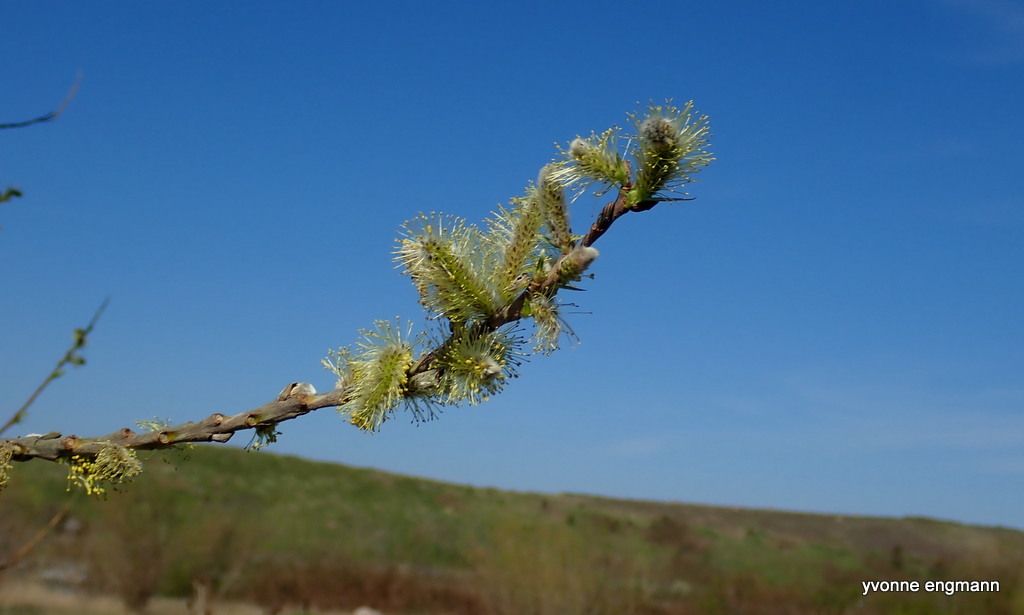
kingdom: Plantae
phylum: Tracheophyta
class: Magnoliopsida
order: Malpighiales
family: Salicaceae
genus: Salix
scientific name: Salix viminalis
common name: Osier
